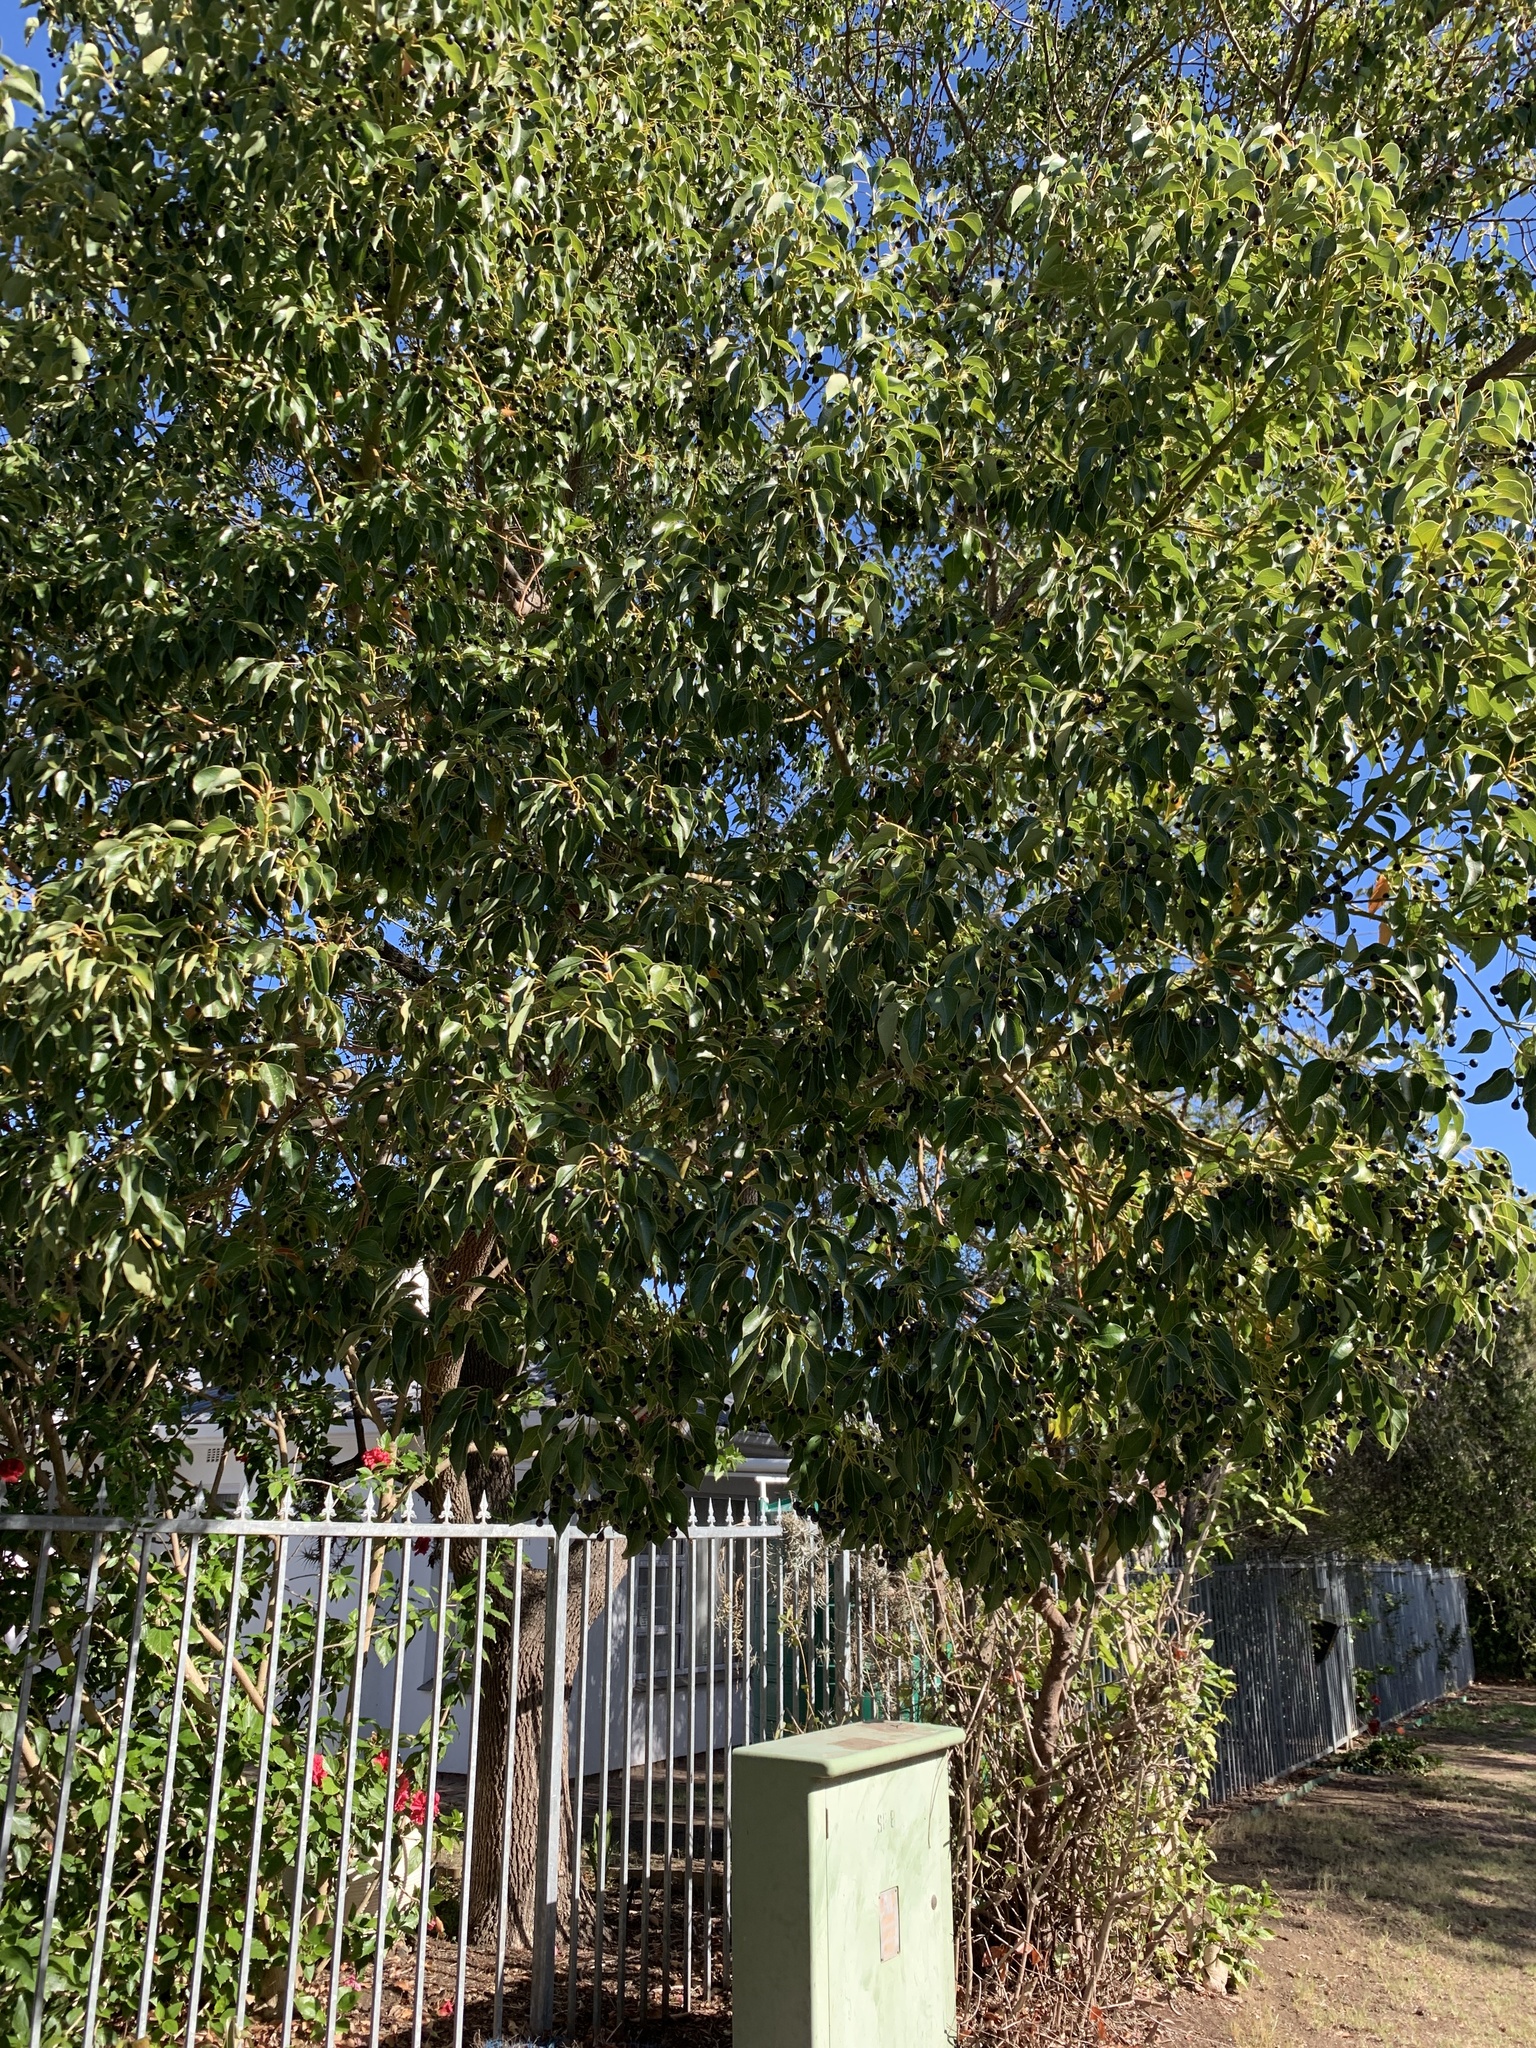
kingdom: Plantae
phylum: Tracheophyta
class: Magnoliopsida
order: Laurales
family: Lauraceae
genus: Cinnamomum
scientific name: Cinnamomum camphora
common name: Camphortree
